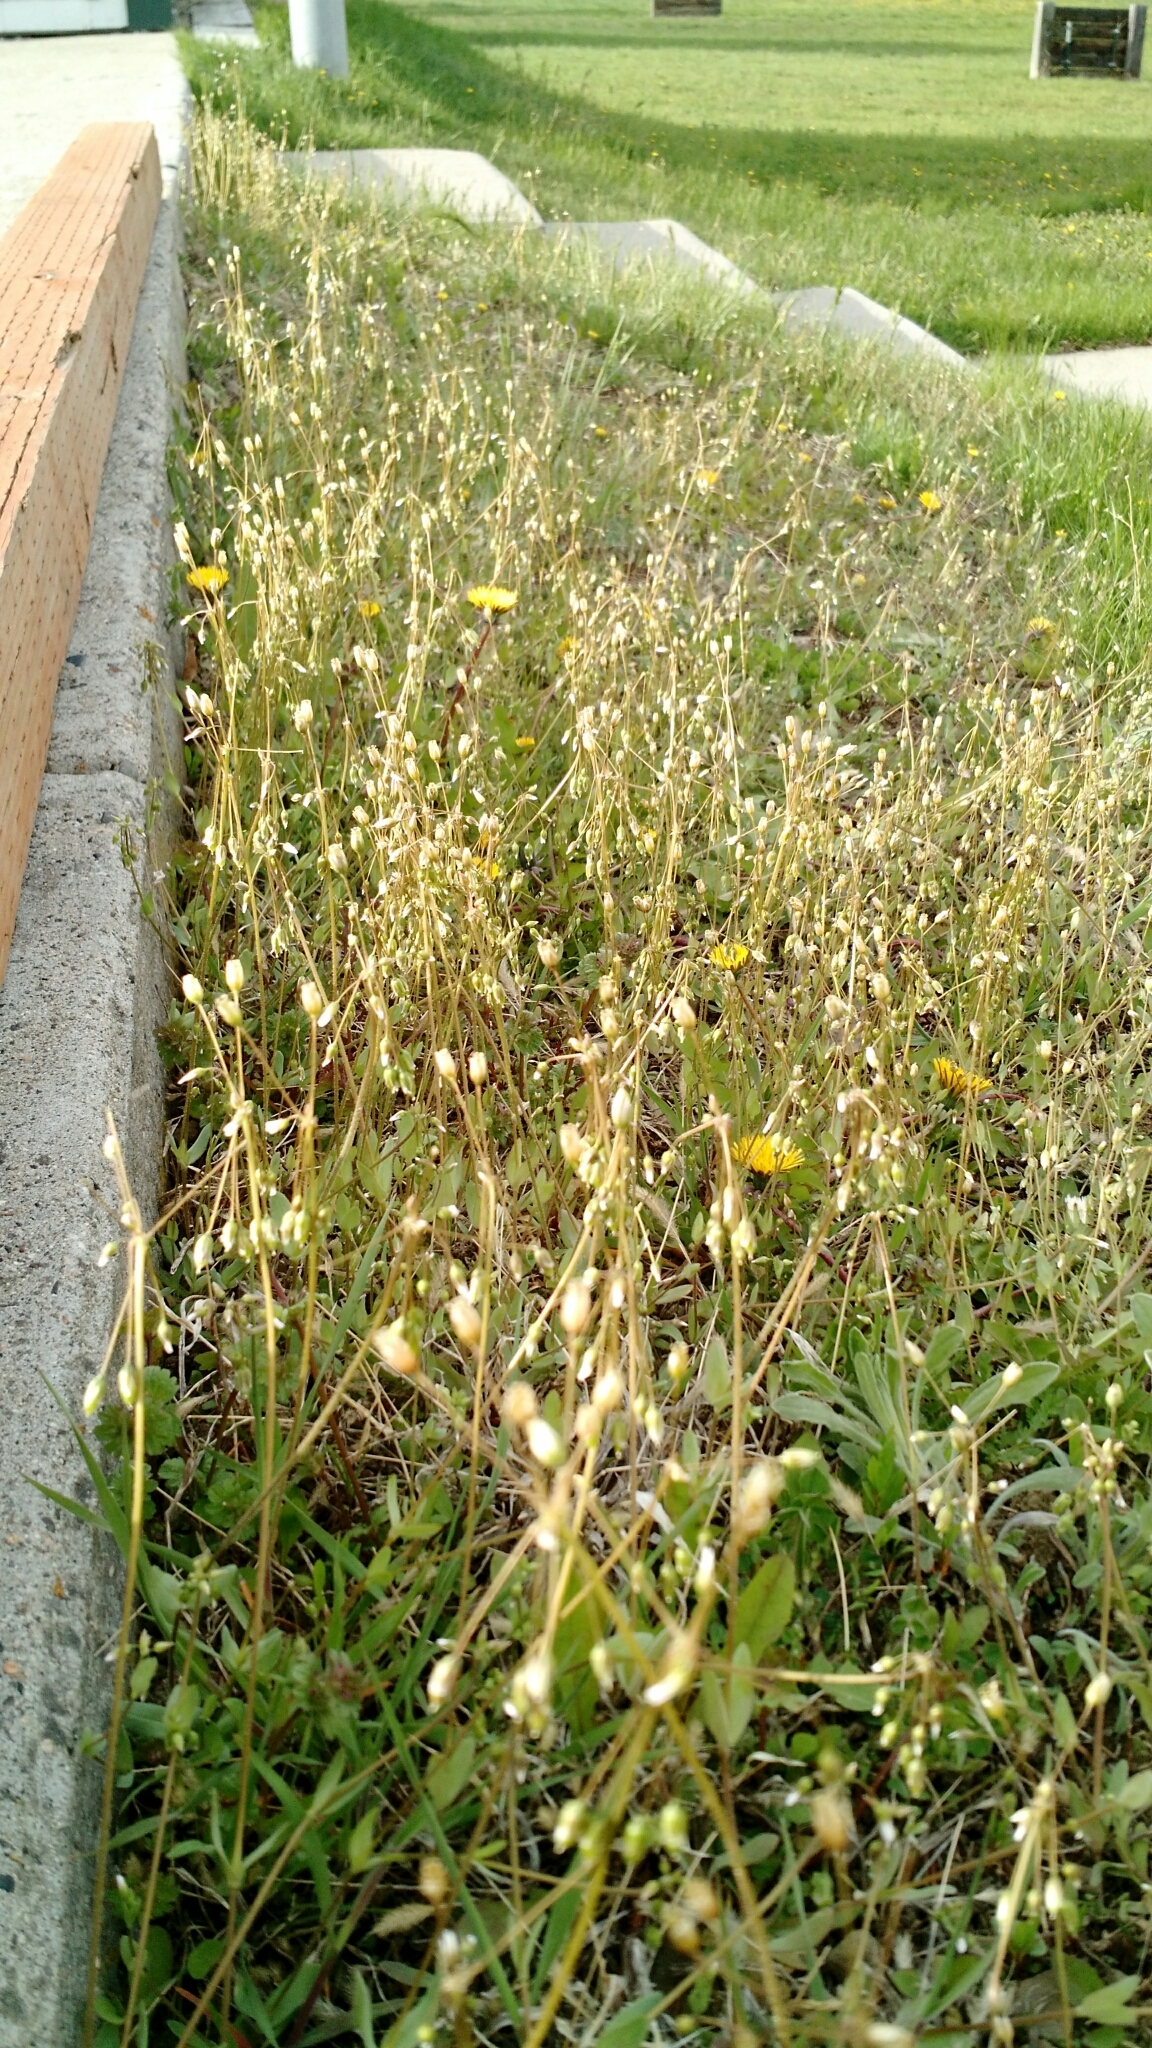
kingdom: Plantae
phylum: Tracheophyta
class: Magnoliopsida
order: Caryophyllales
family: Caryophyllaceae
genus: Holosteum
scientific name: Holosteum umbellatum
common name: Jagged chickweed
